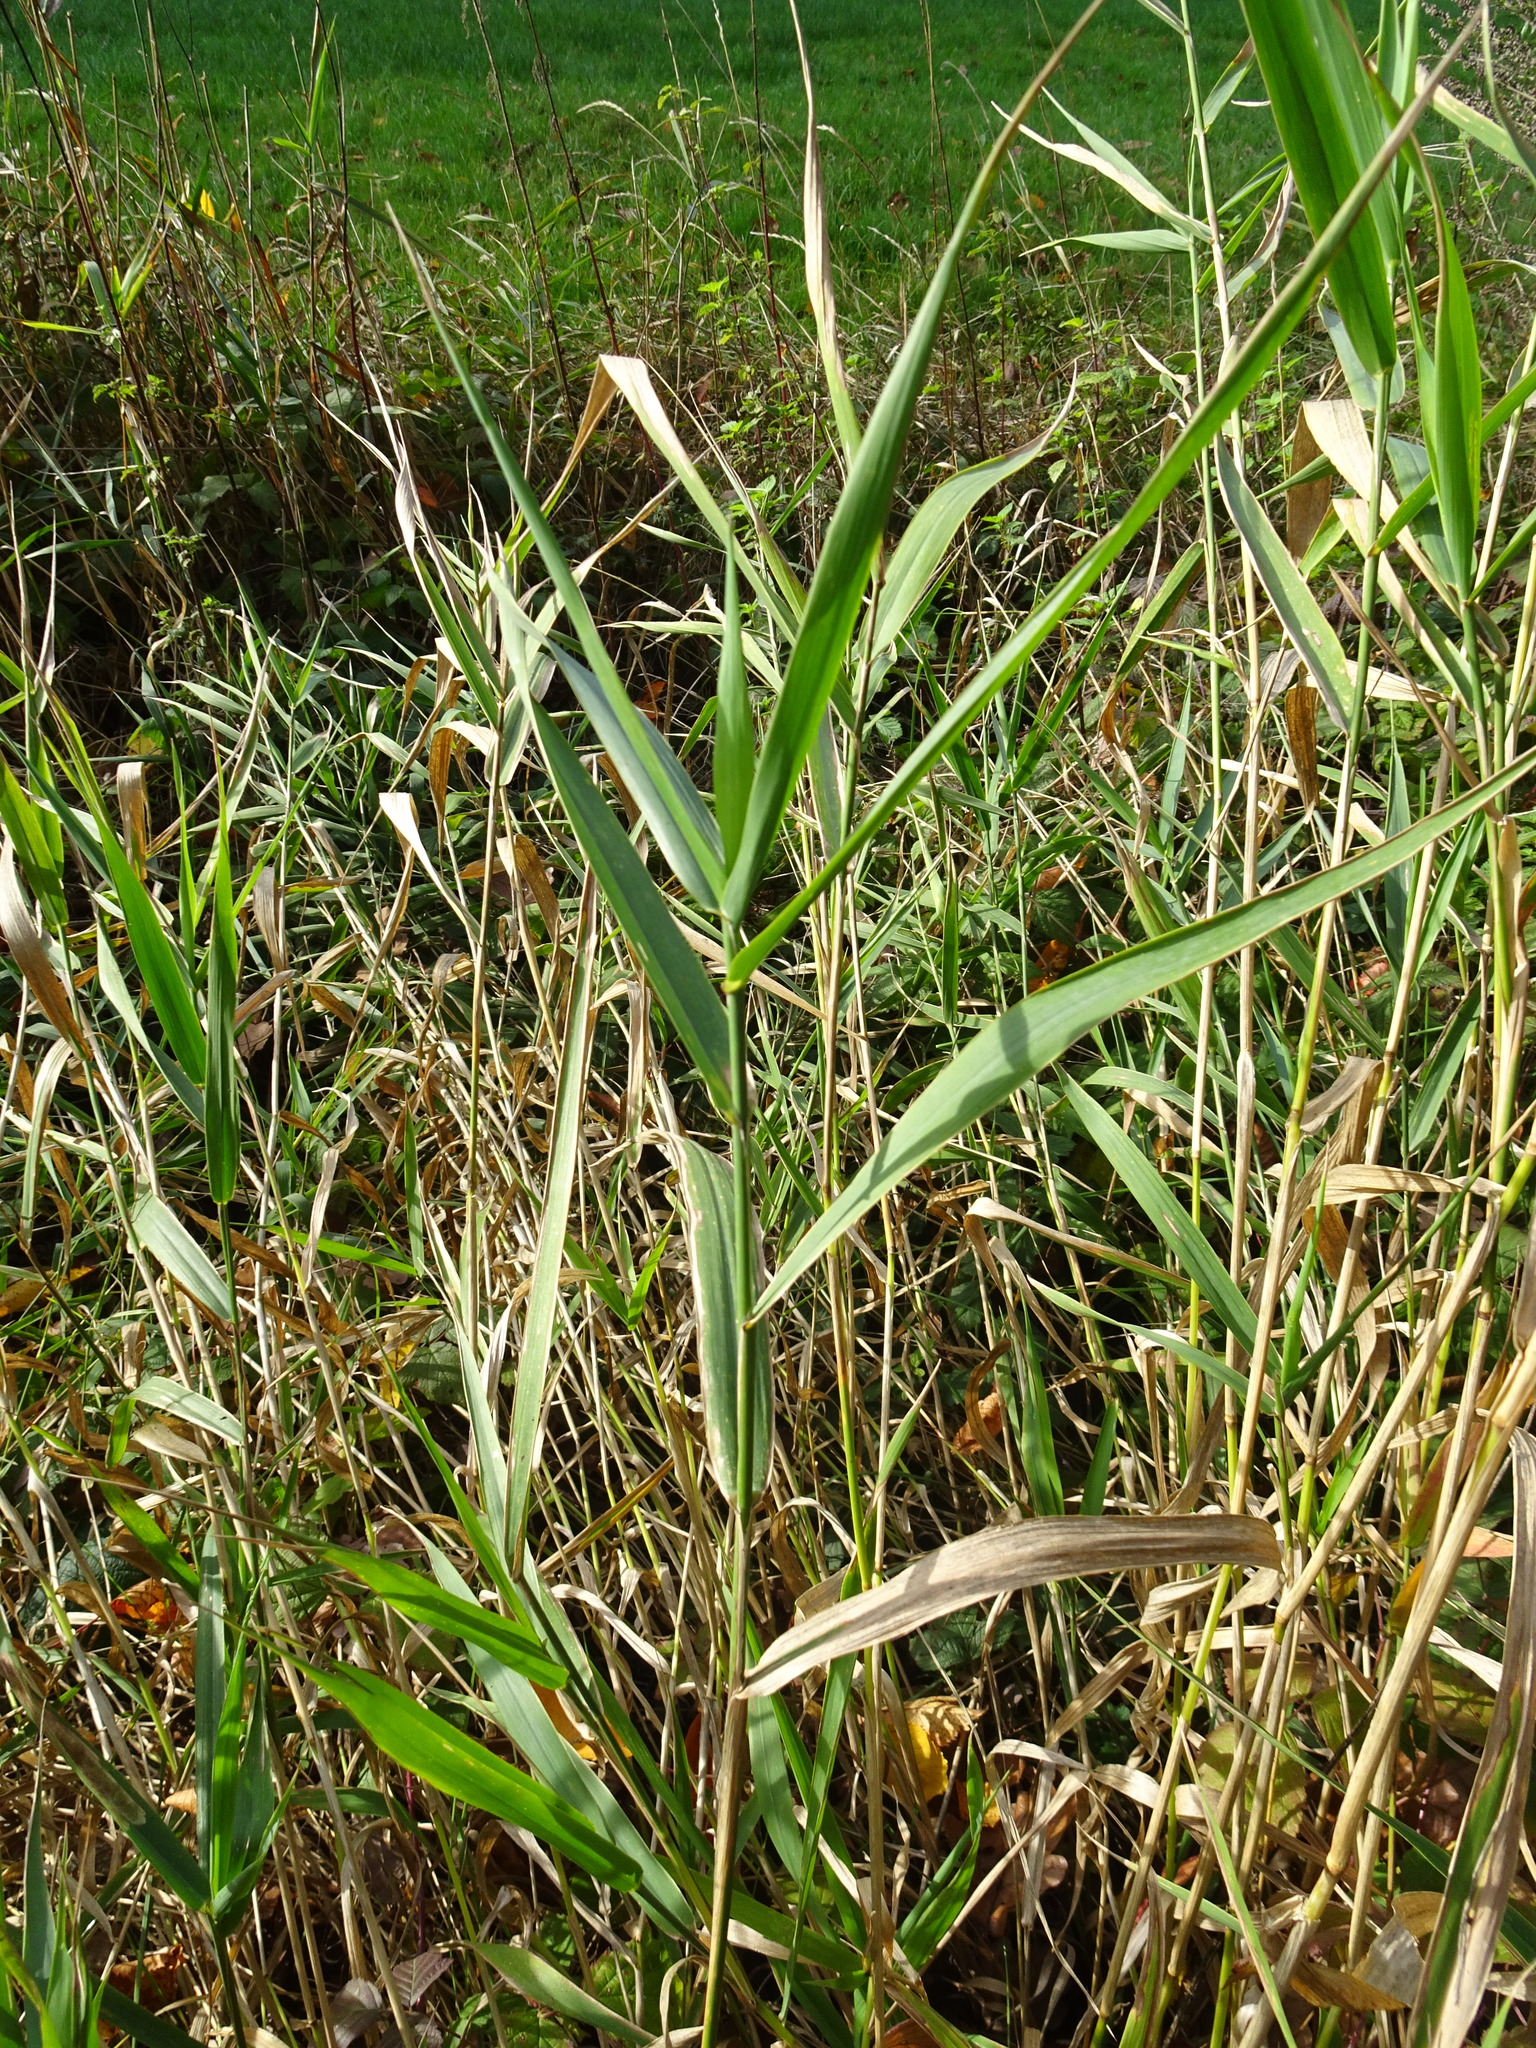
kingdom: Plantae
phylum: Tracheophyta
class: Liliopsida
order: Poales
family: Poaceae
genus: Phalaris
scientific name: Phalaris arundinacea
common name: Reed canary-grass
